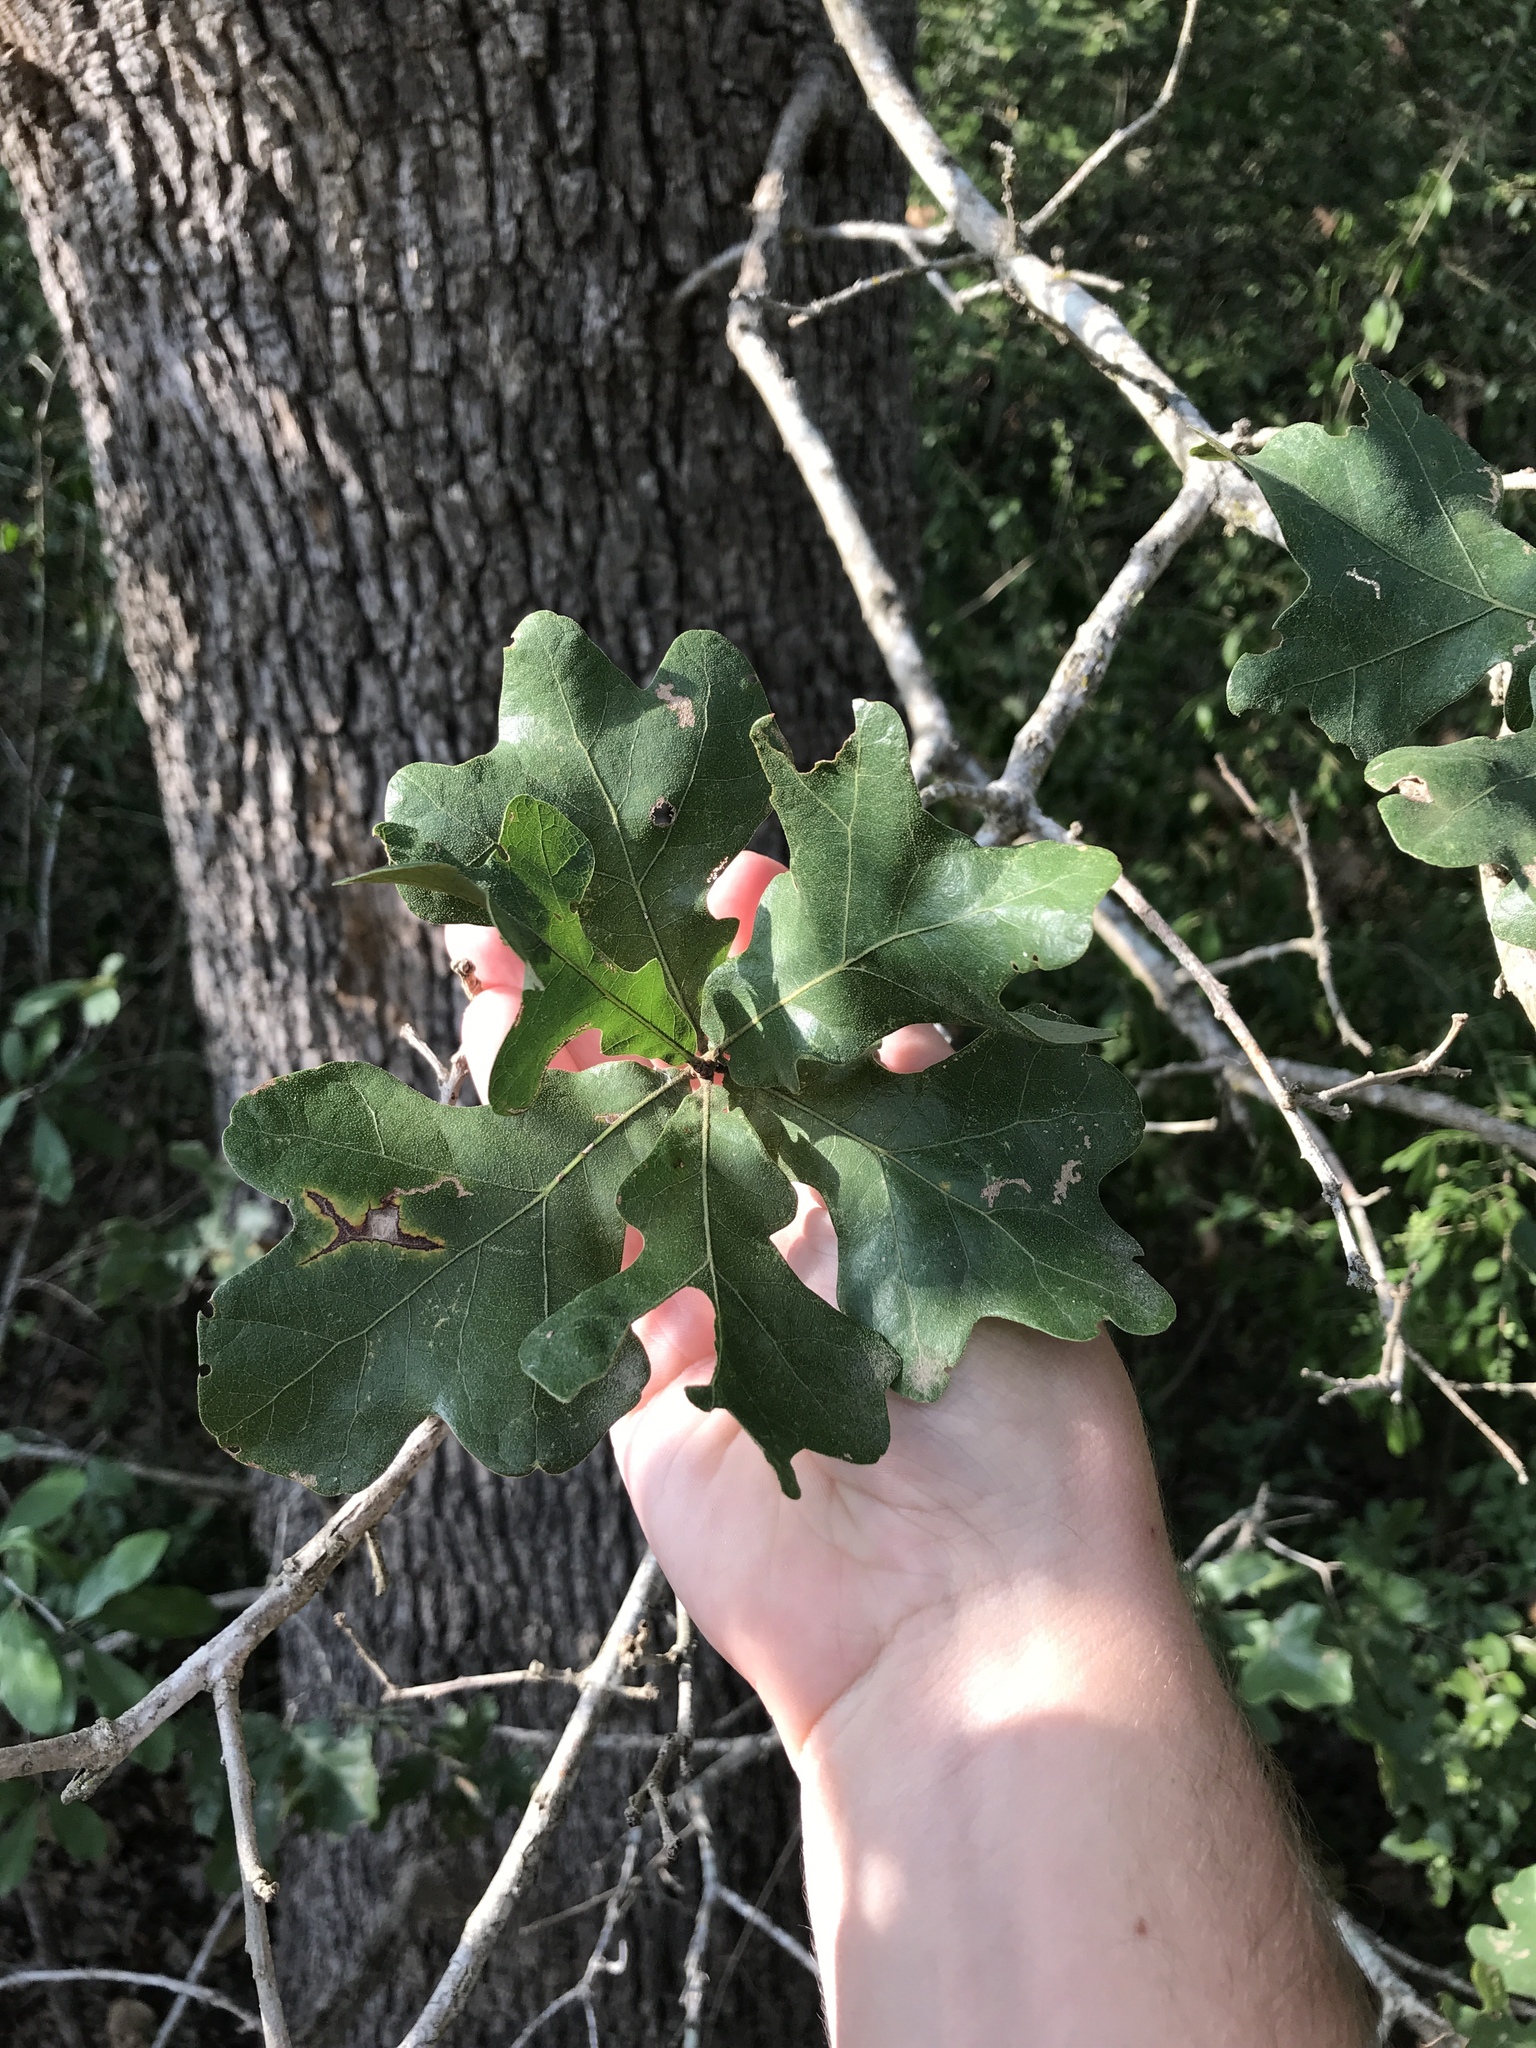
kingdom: Plantae
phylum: Tracheophyta
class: Magnoliopsida
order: Fagales
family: Fagaceae
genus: Quercus
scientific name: Quercus stellata
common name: Post oak
